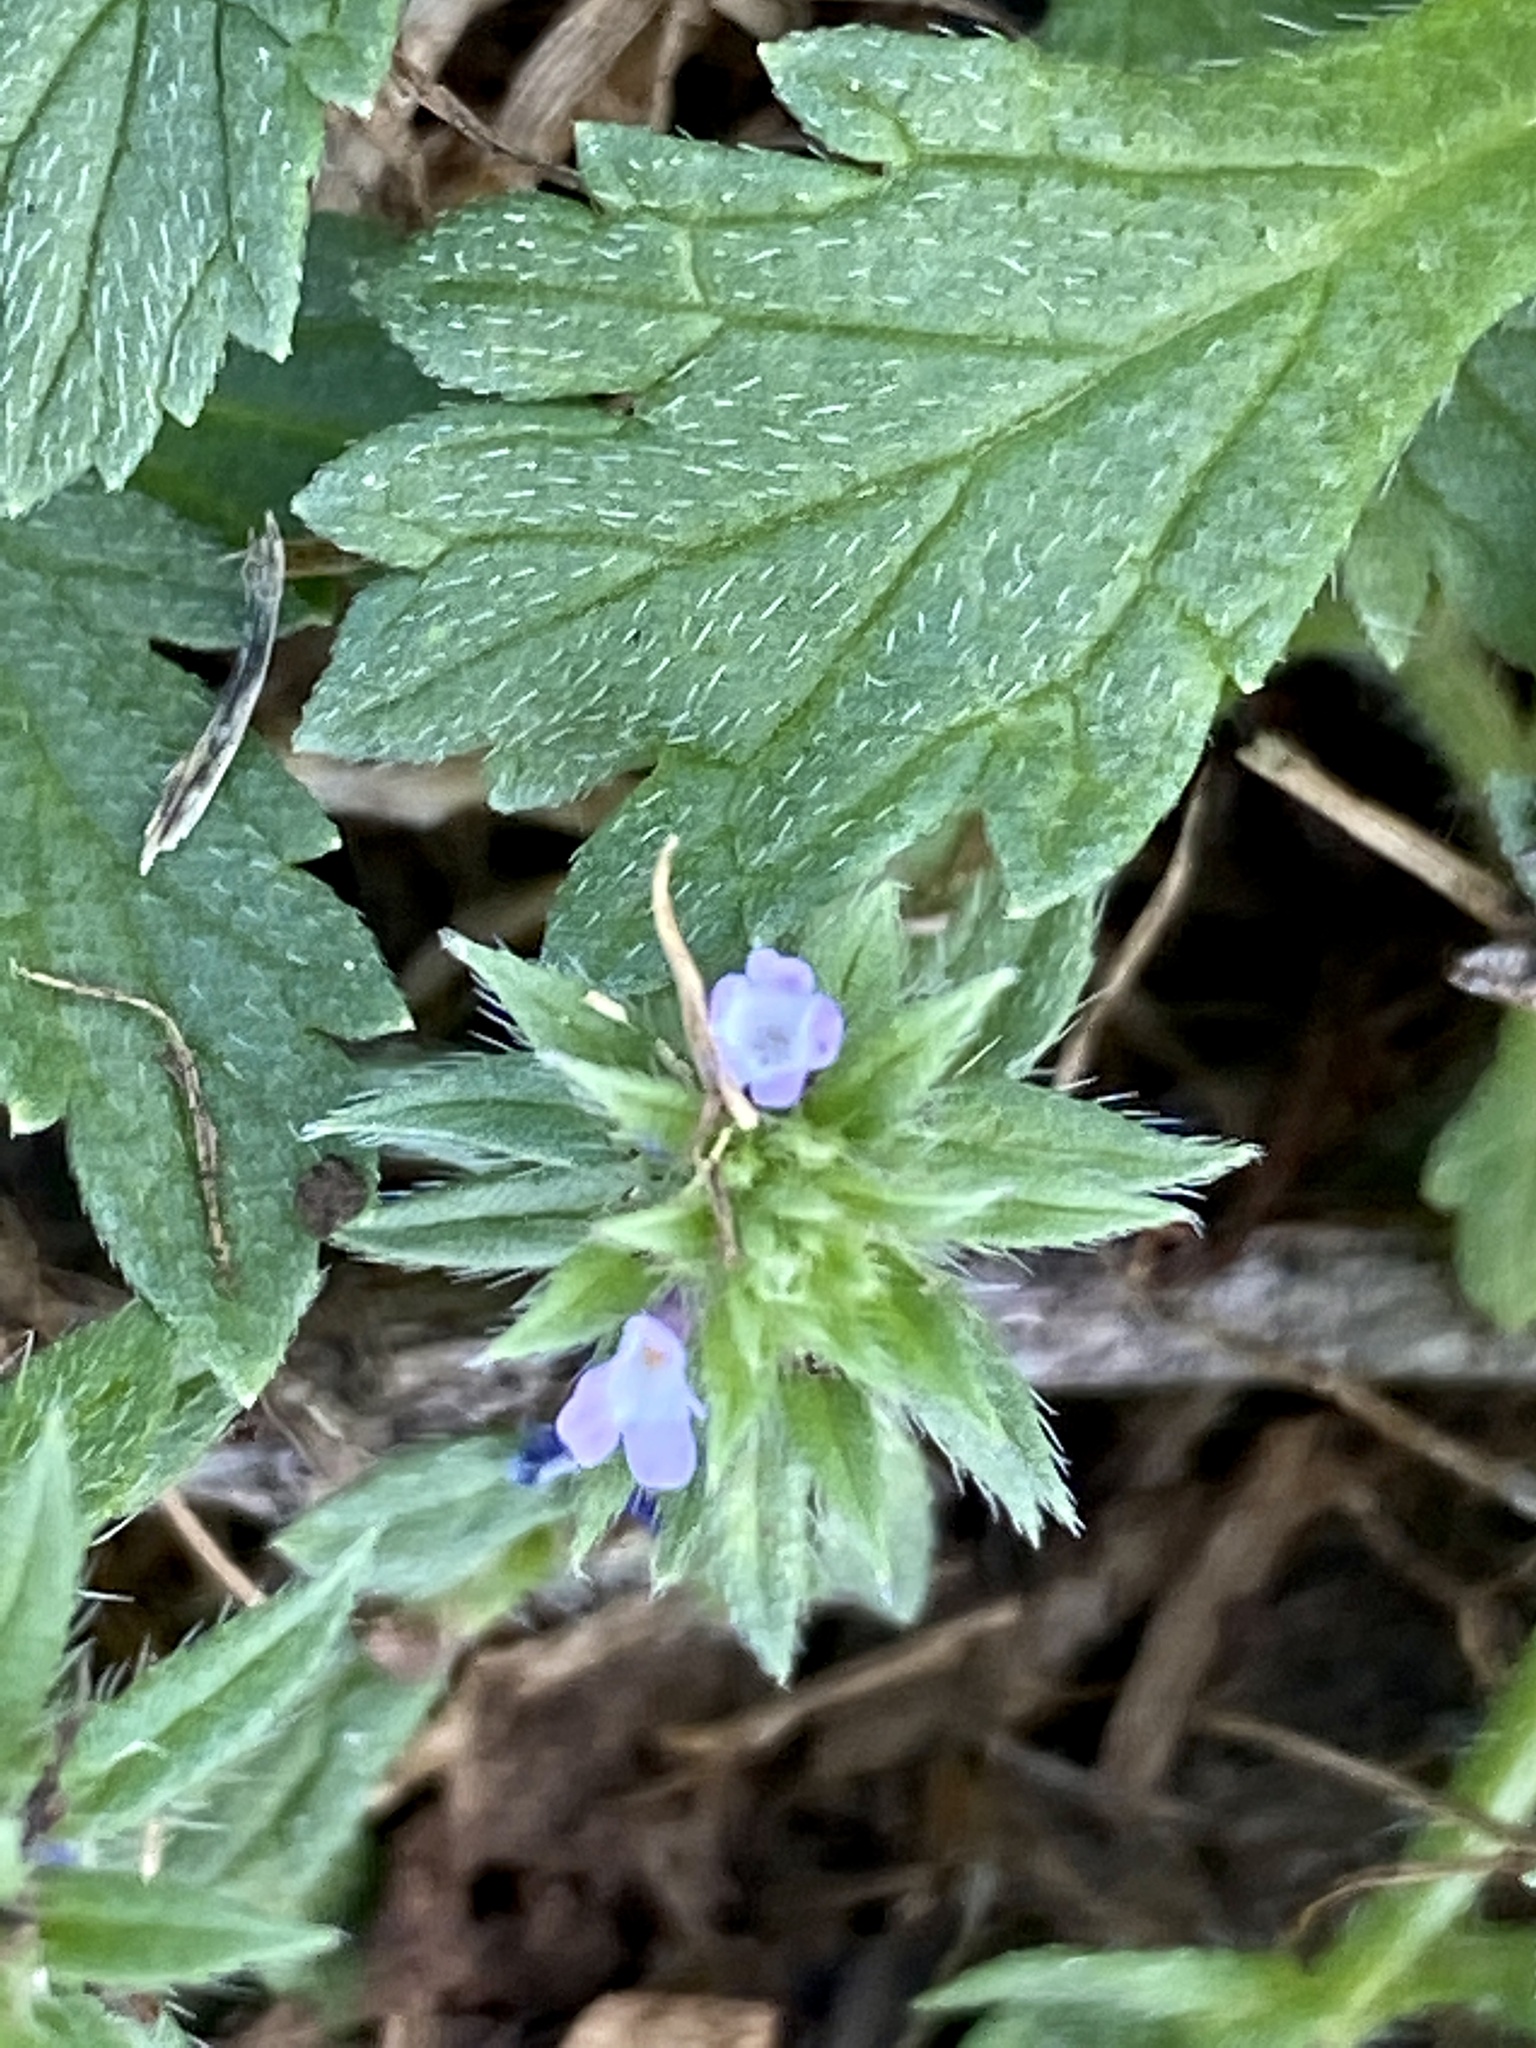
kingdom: Plantae
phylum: Tracheophyta
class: Magnoliopsida
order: Lamiales
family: Verbenaceae
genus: Verbena
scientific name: Verbena bracteata
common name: Bracted vervain
